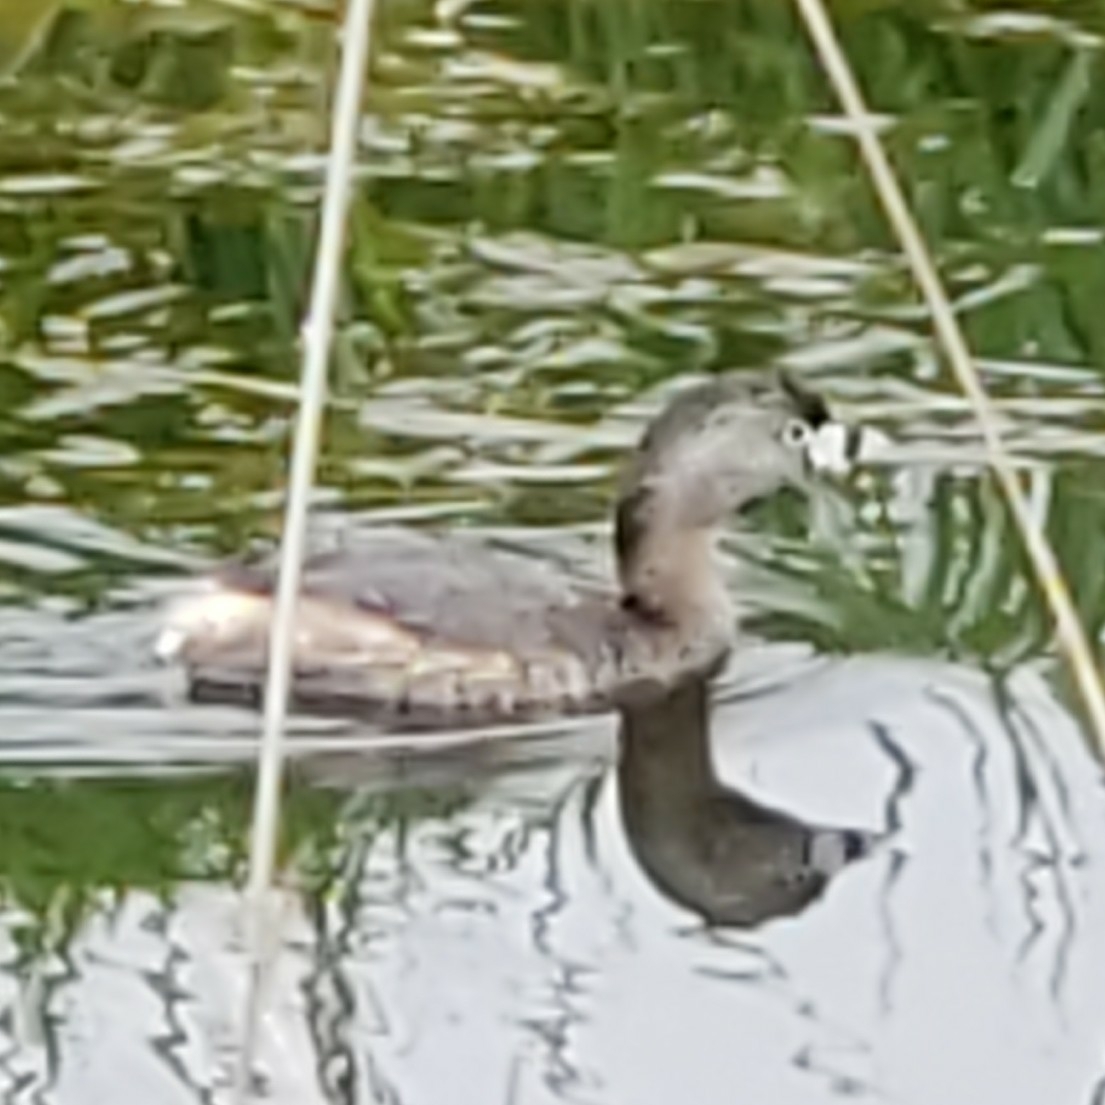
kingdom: Animalia
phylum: Chordata
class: Aves
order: Podicipediformes
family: Podicipedidae
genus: Podilymbus
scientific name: Podilymbus podiceps
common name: Pied-billed grebe
